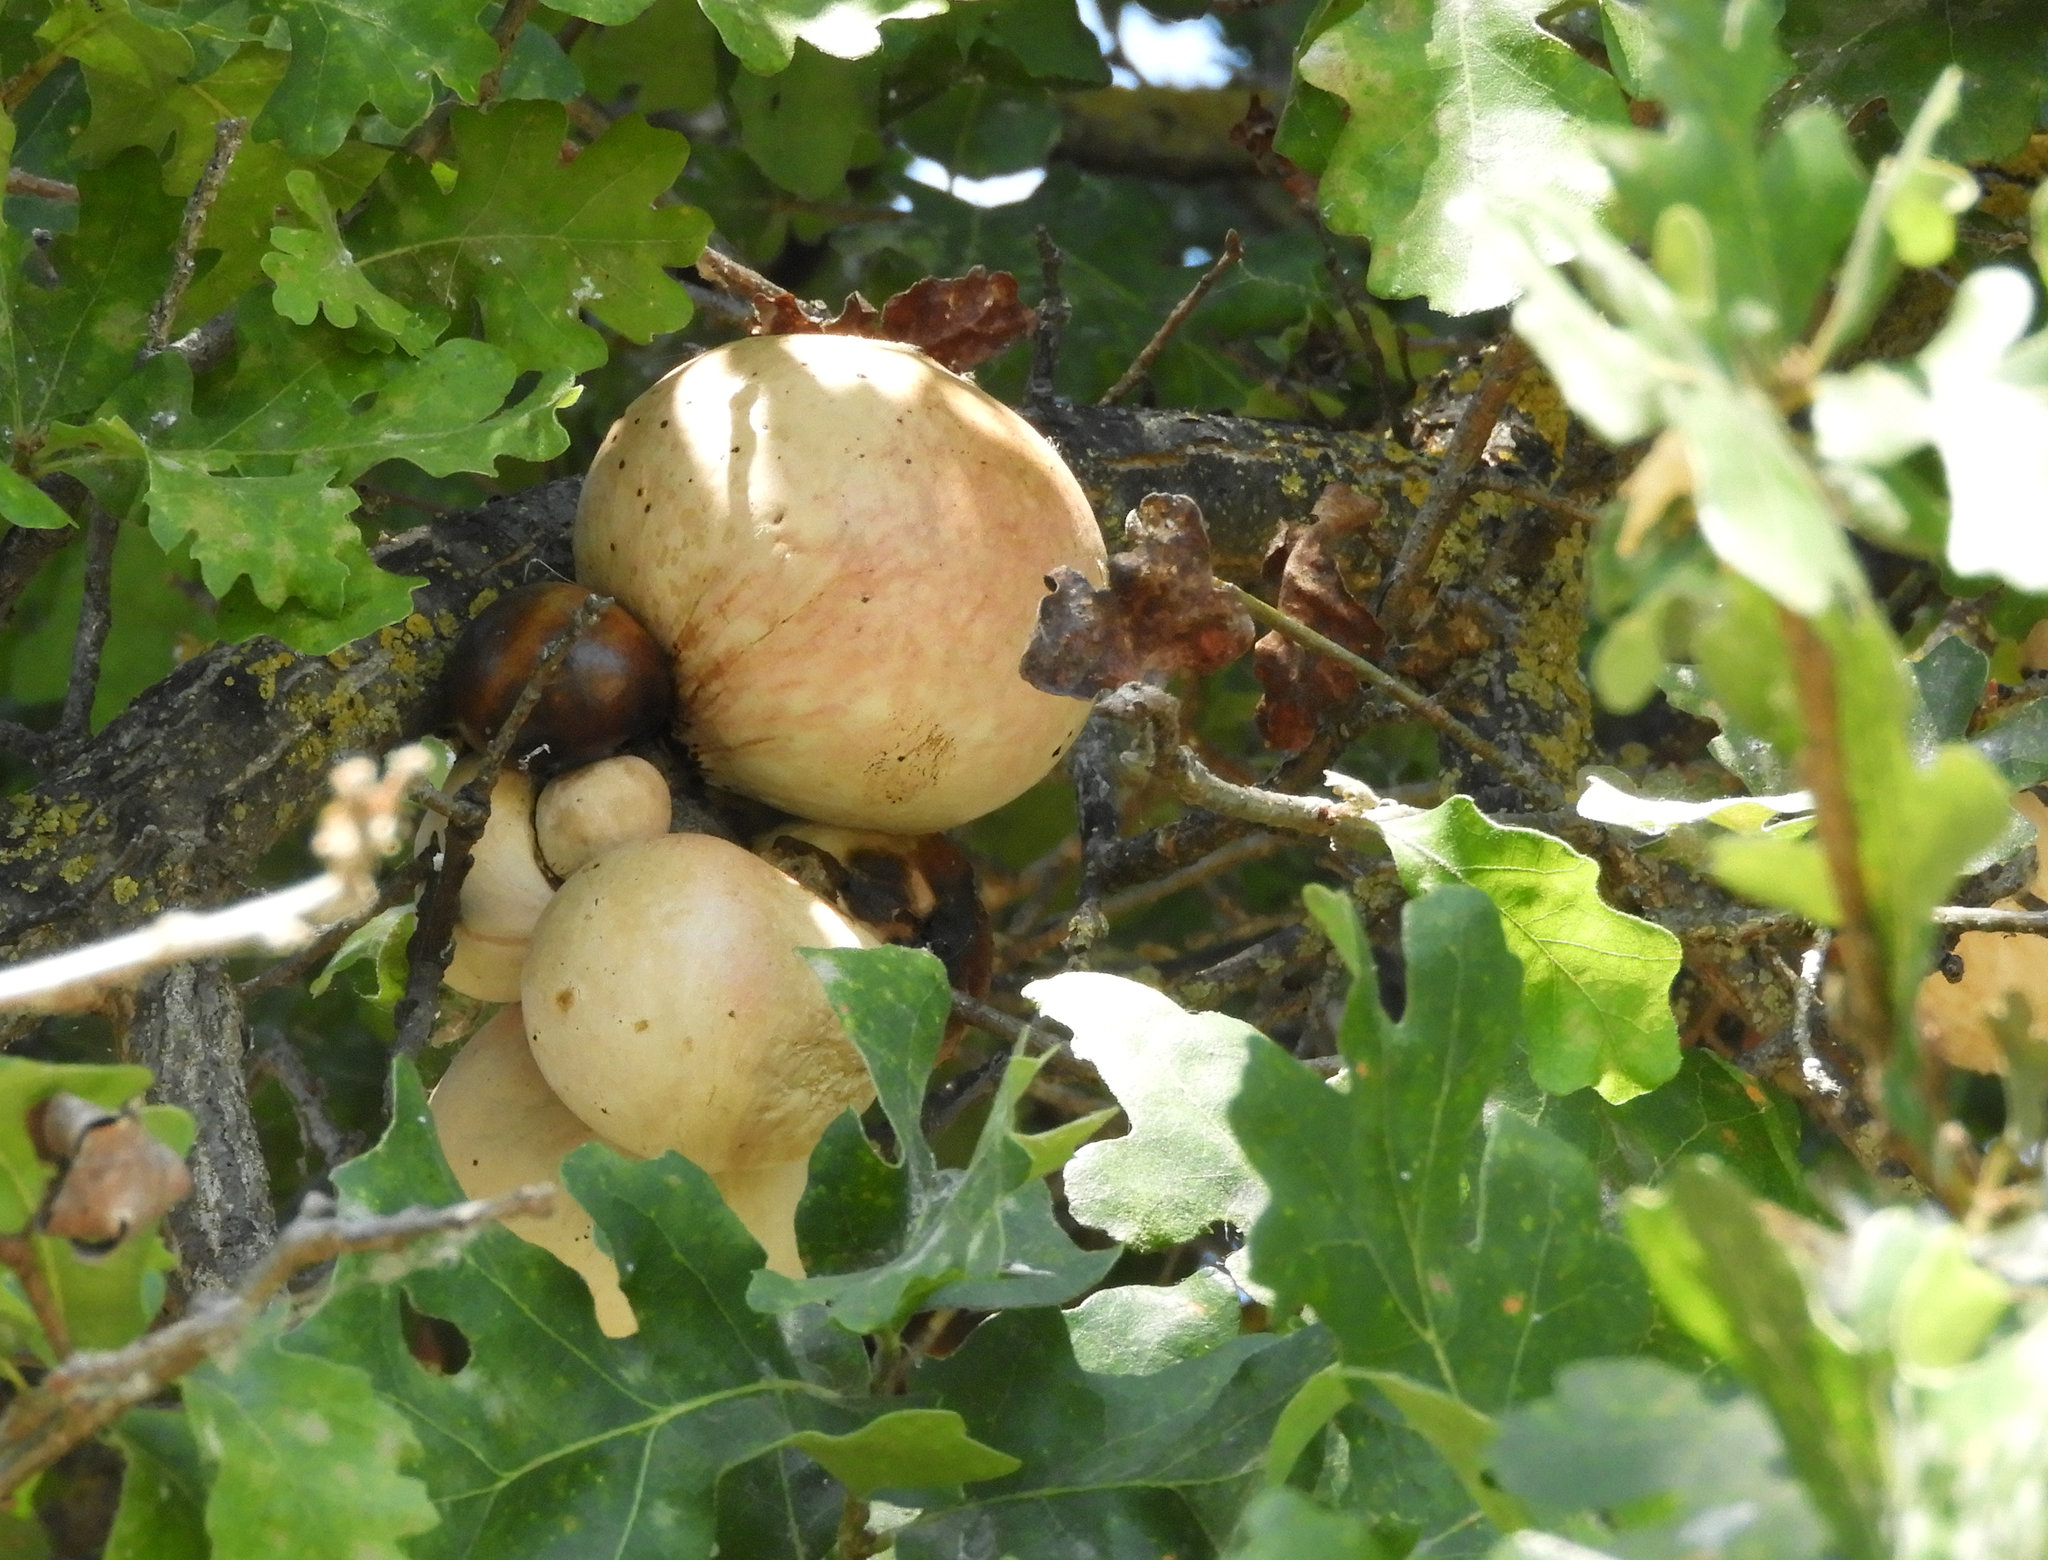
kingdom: Animalia
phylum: Arthropoda
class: Insecta
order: Hymenoptera
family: Cynipidae
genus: Andricus
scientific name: Andricus quercuscalifornicus
